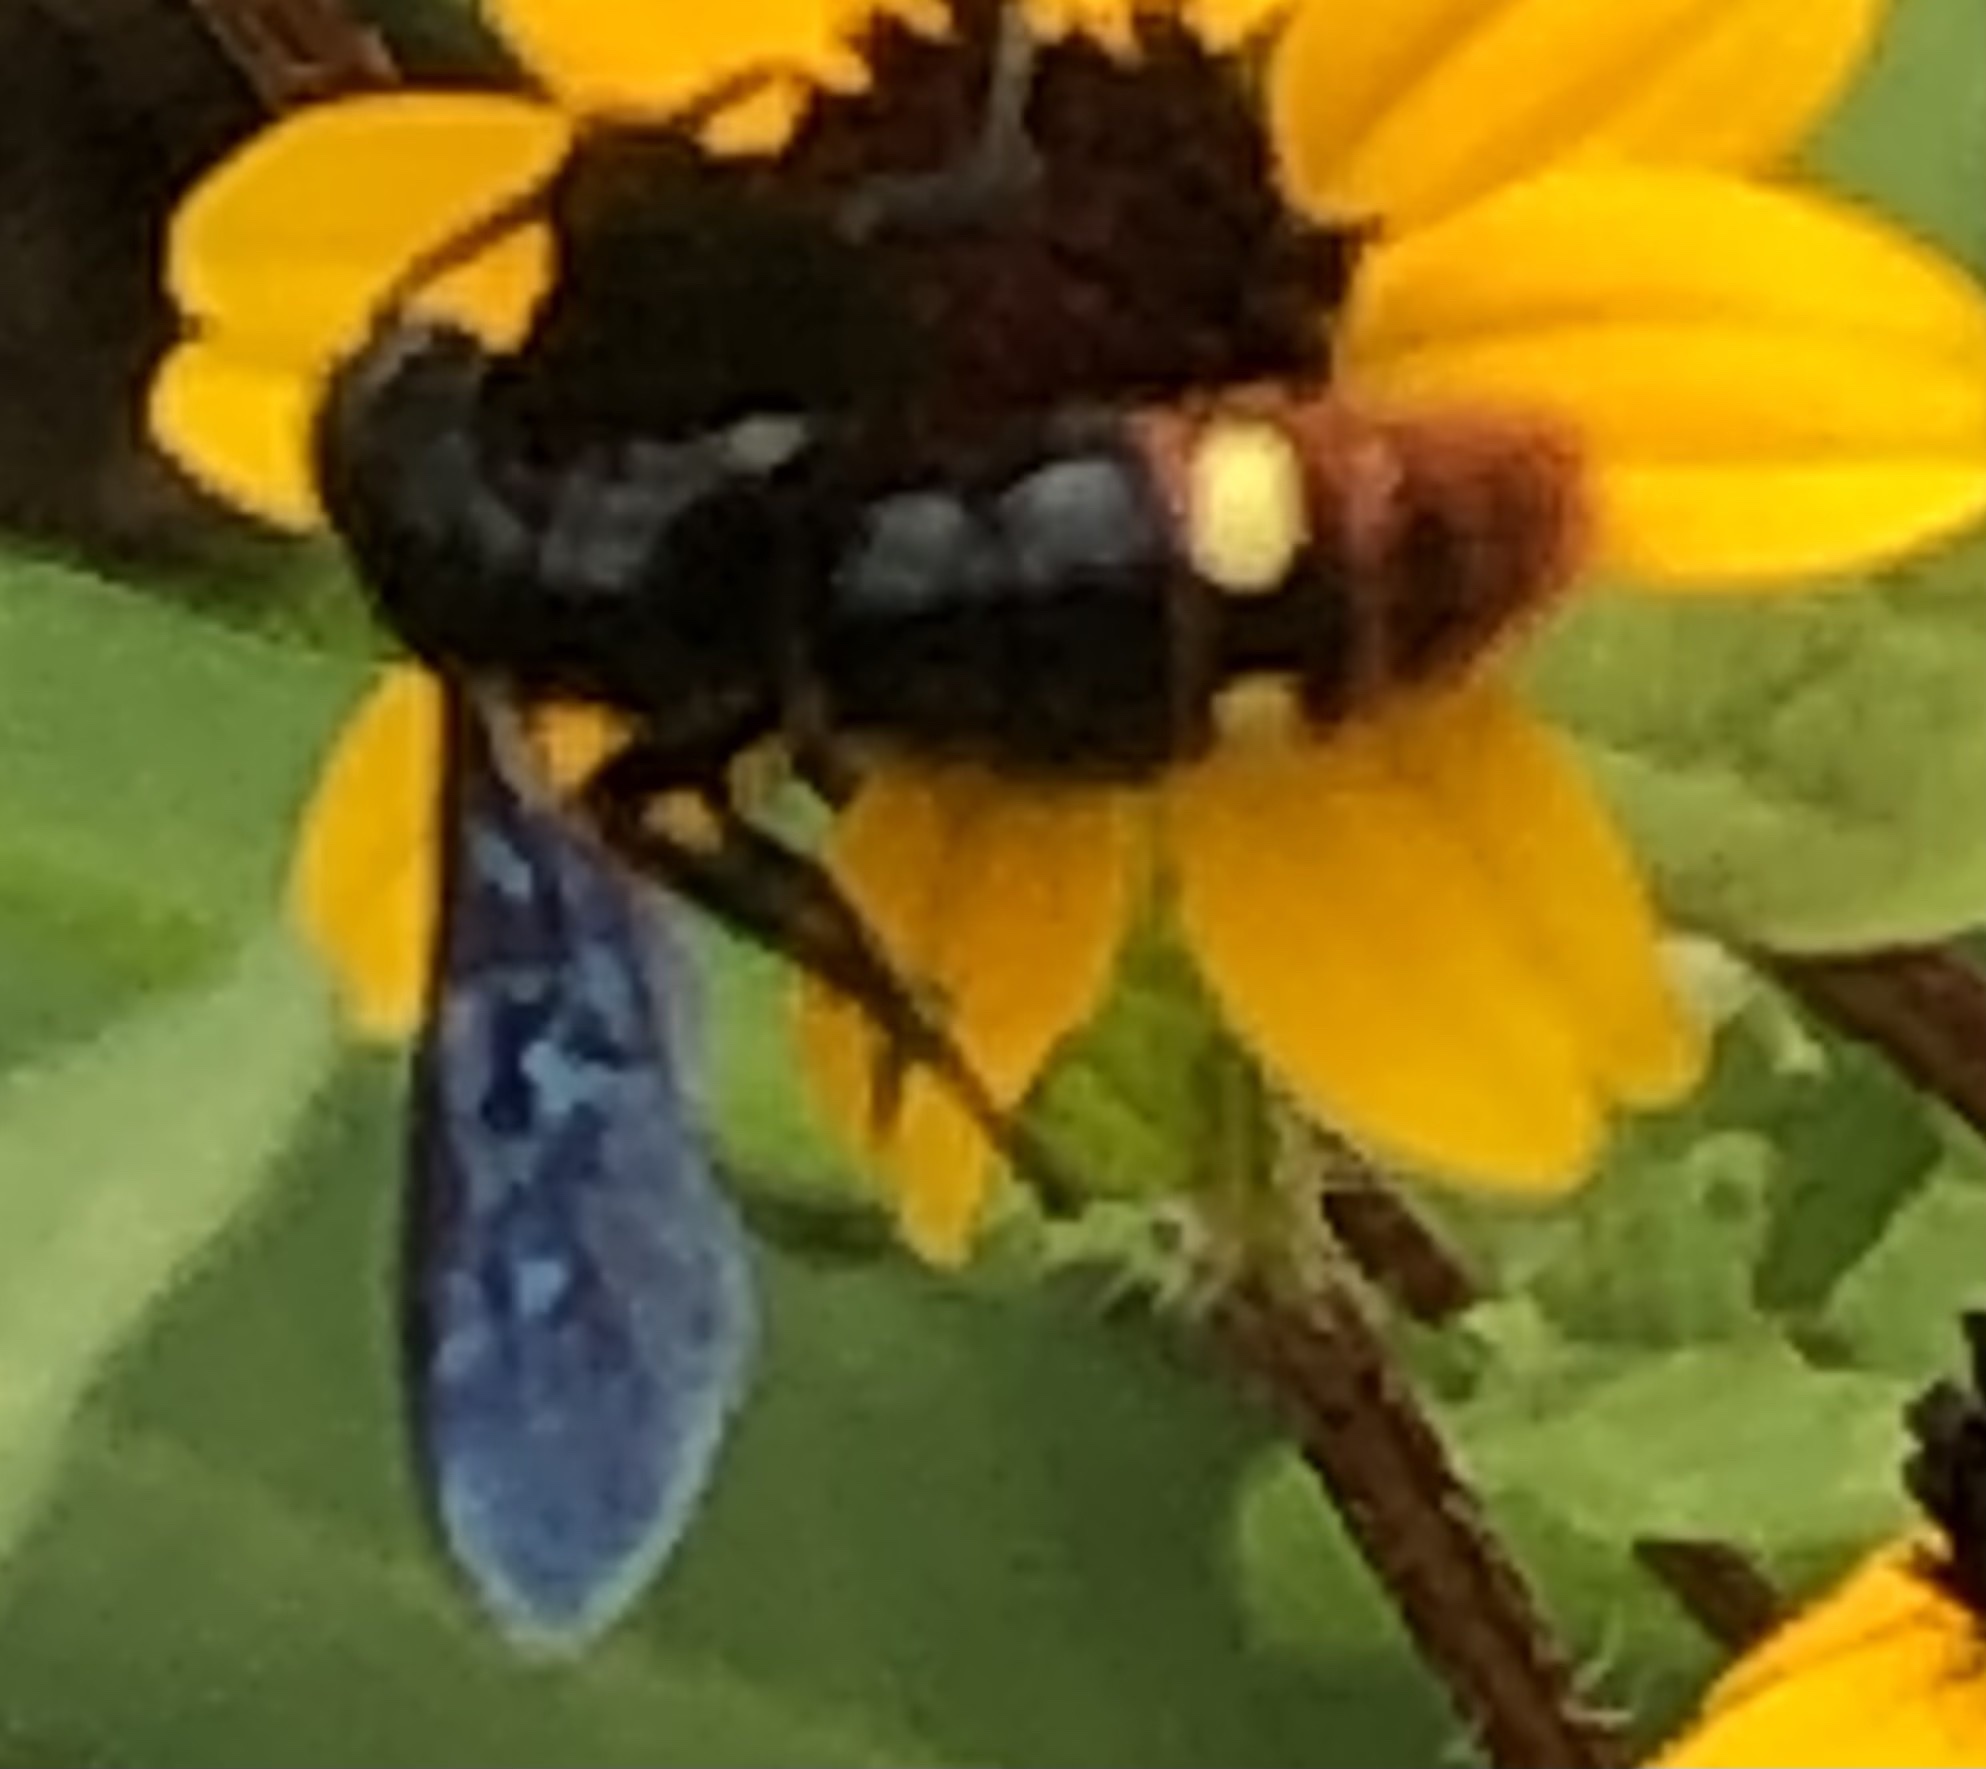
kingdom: Animalia
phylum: Arthropoda
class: Insecta
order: Hymenoptera
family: Scoliidae
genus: Scolia
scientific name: Scolia dubia
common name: Blue-winged scoliid wasp
